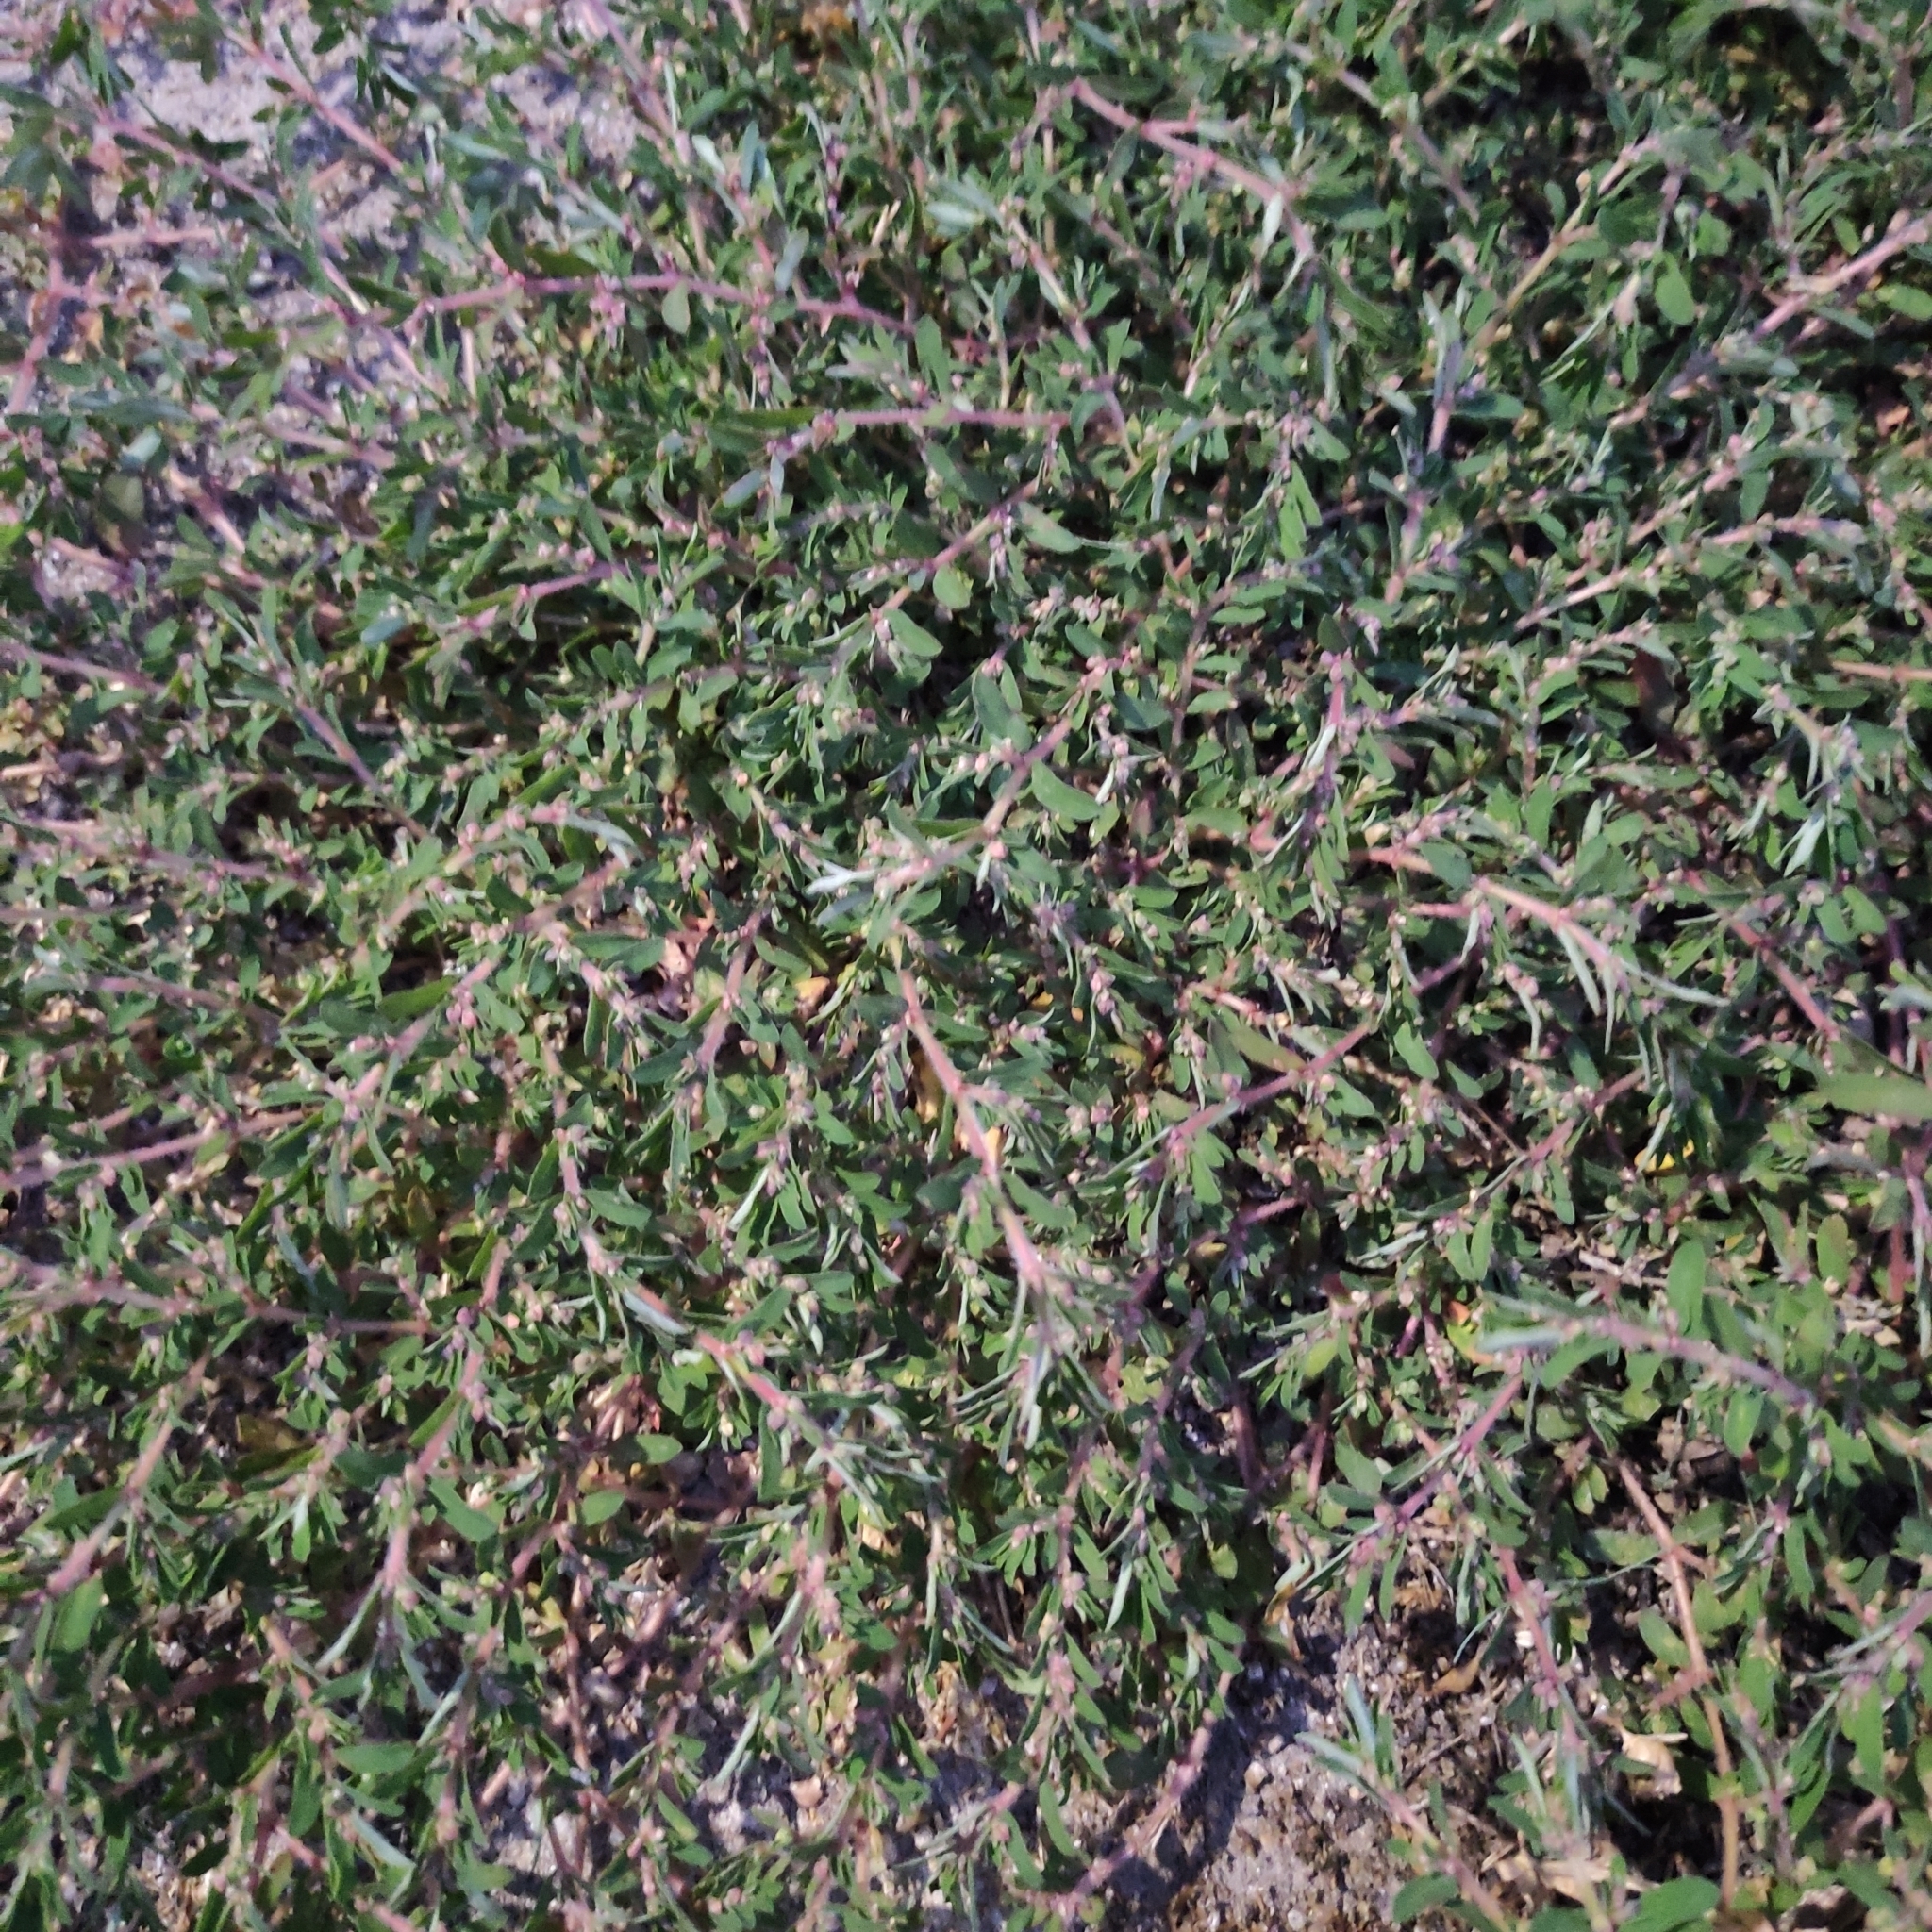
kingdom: Plantae
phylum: Tracheophyta
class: Magnoliopsida
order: Malpighiales
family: Euphorbiaceae
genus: Euphorbia
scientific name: Euphorbia maculata
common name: Spotted spurge
